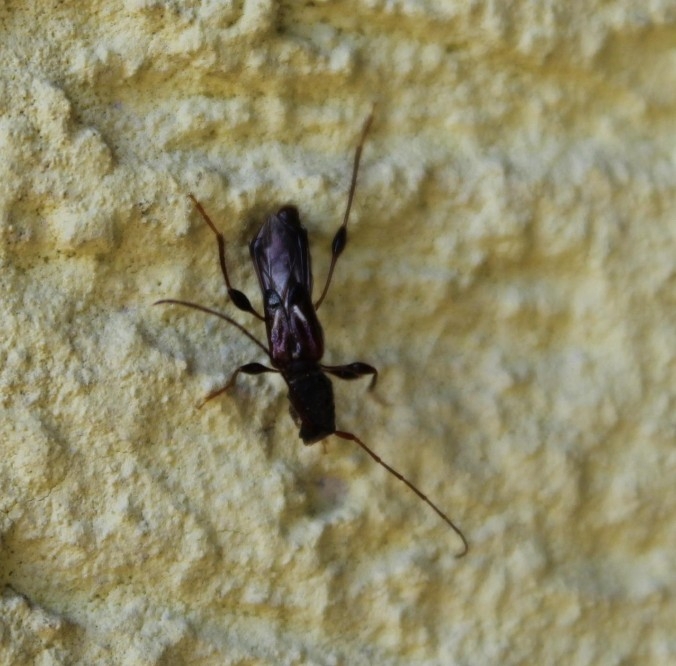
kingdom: Animalia
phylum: Arthropoda
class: Insecta
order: Coleoptera
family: Cerambycidae
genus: Molorchus
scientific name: Molorchus minor
